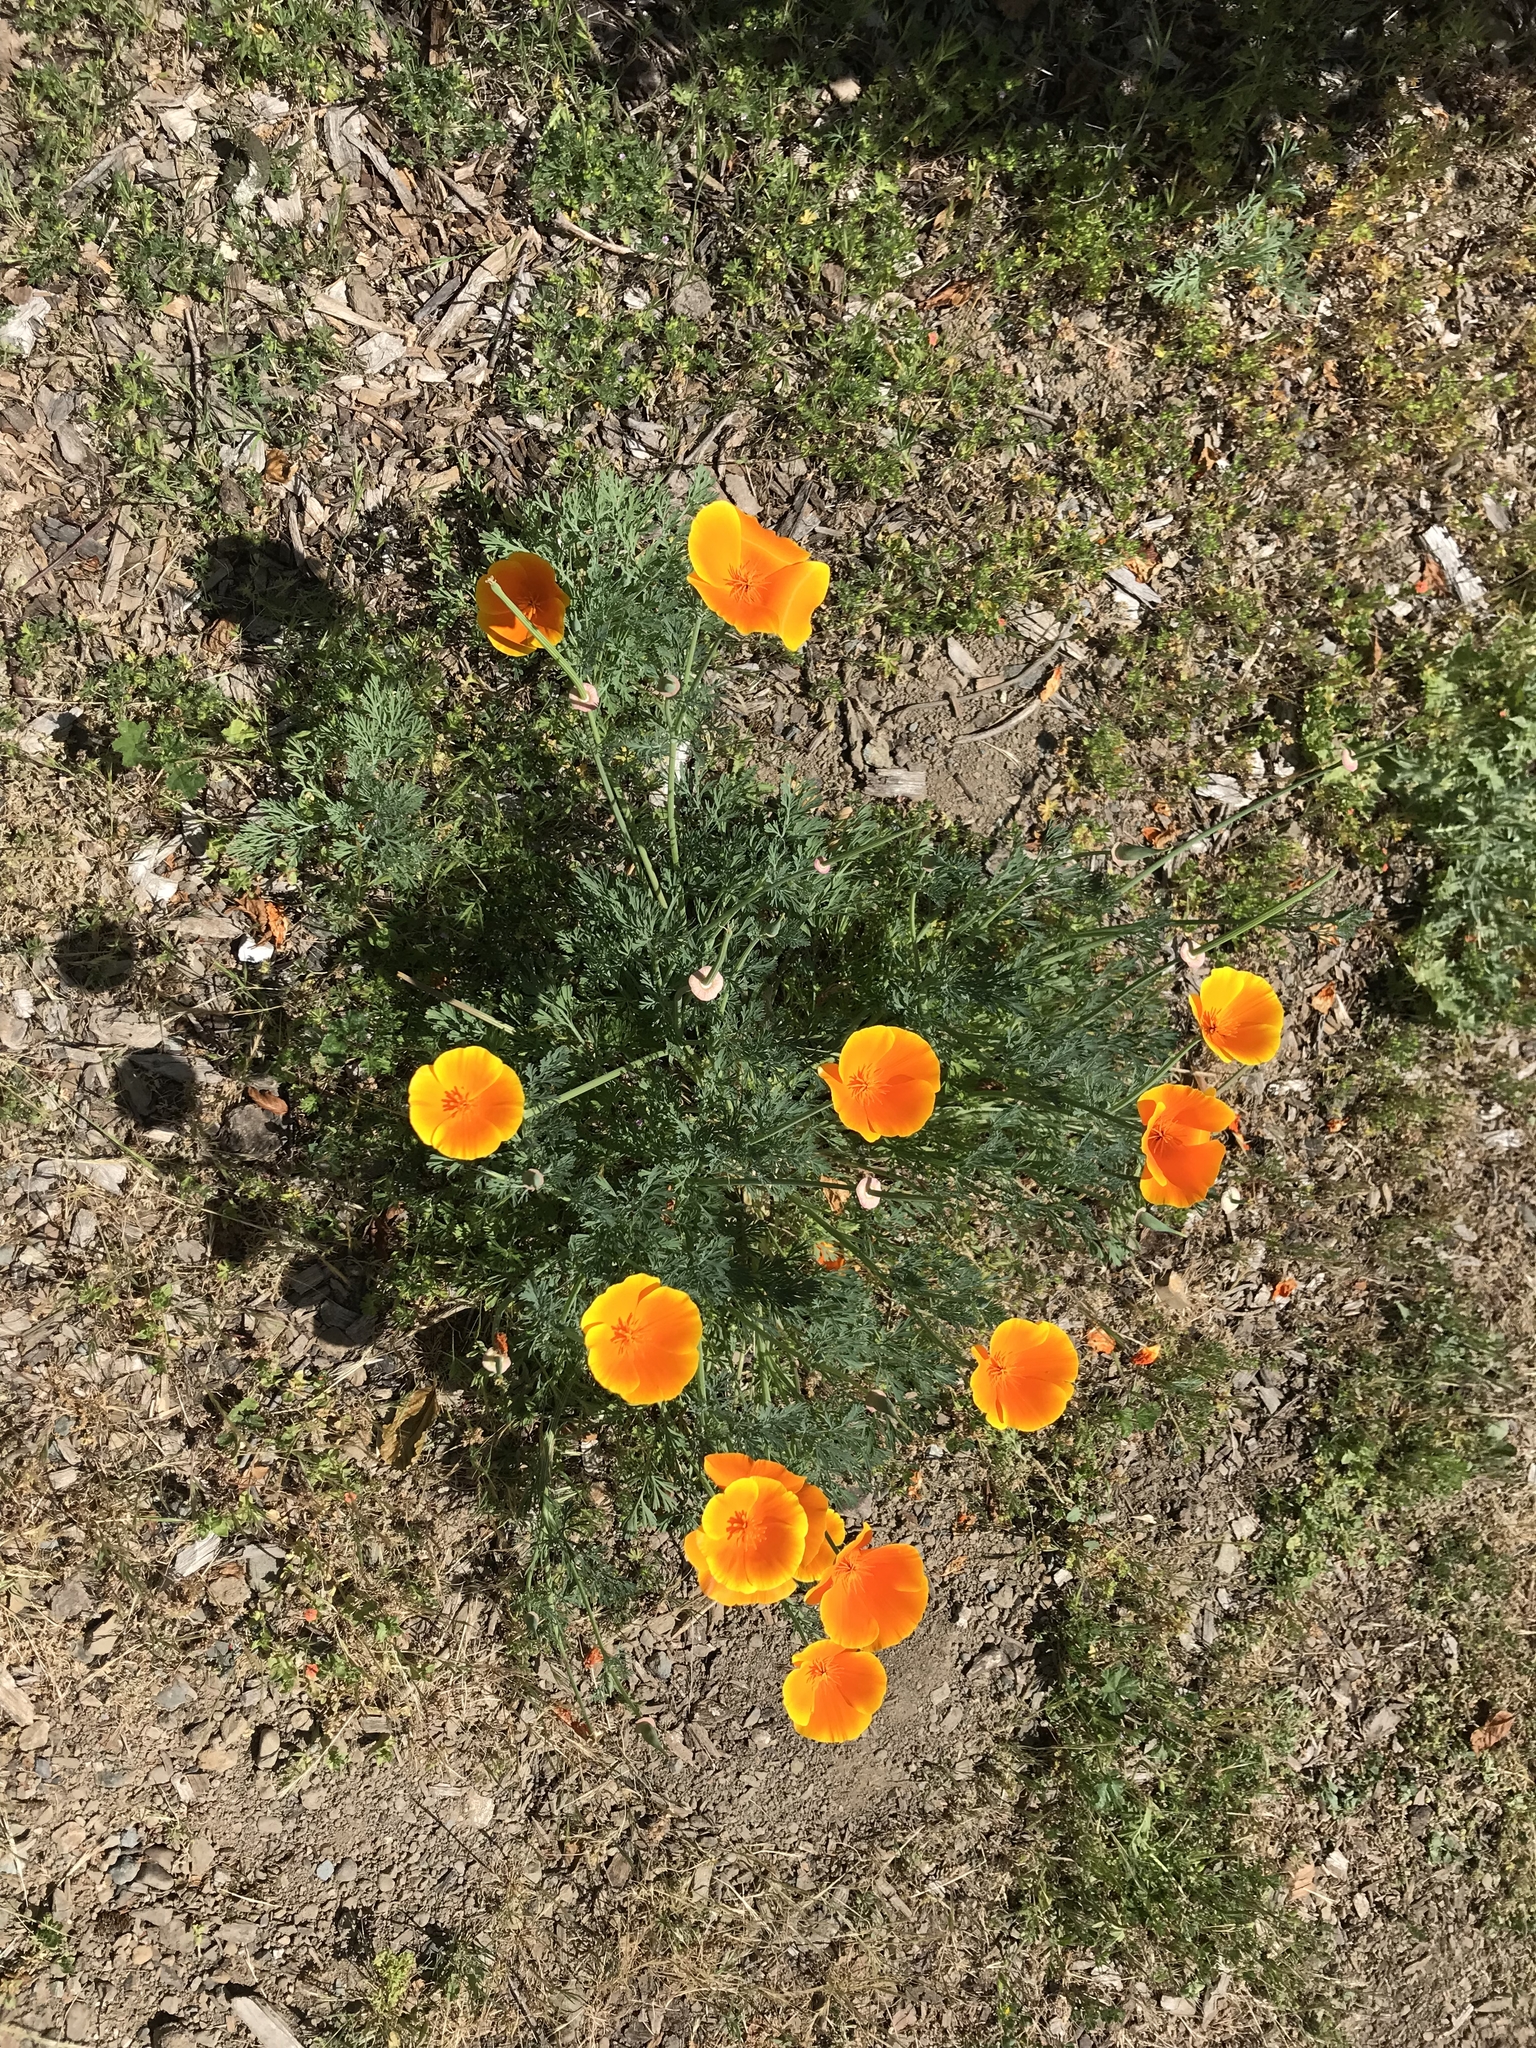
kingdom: Plantae
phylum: Tracheophyta
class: Magnoliopsida
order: Ranunculales
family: Papaveraceae
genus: Eschscholzia
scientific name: Eschscholzia californica
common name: California poppy
